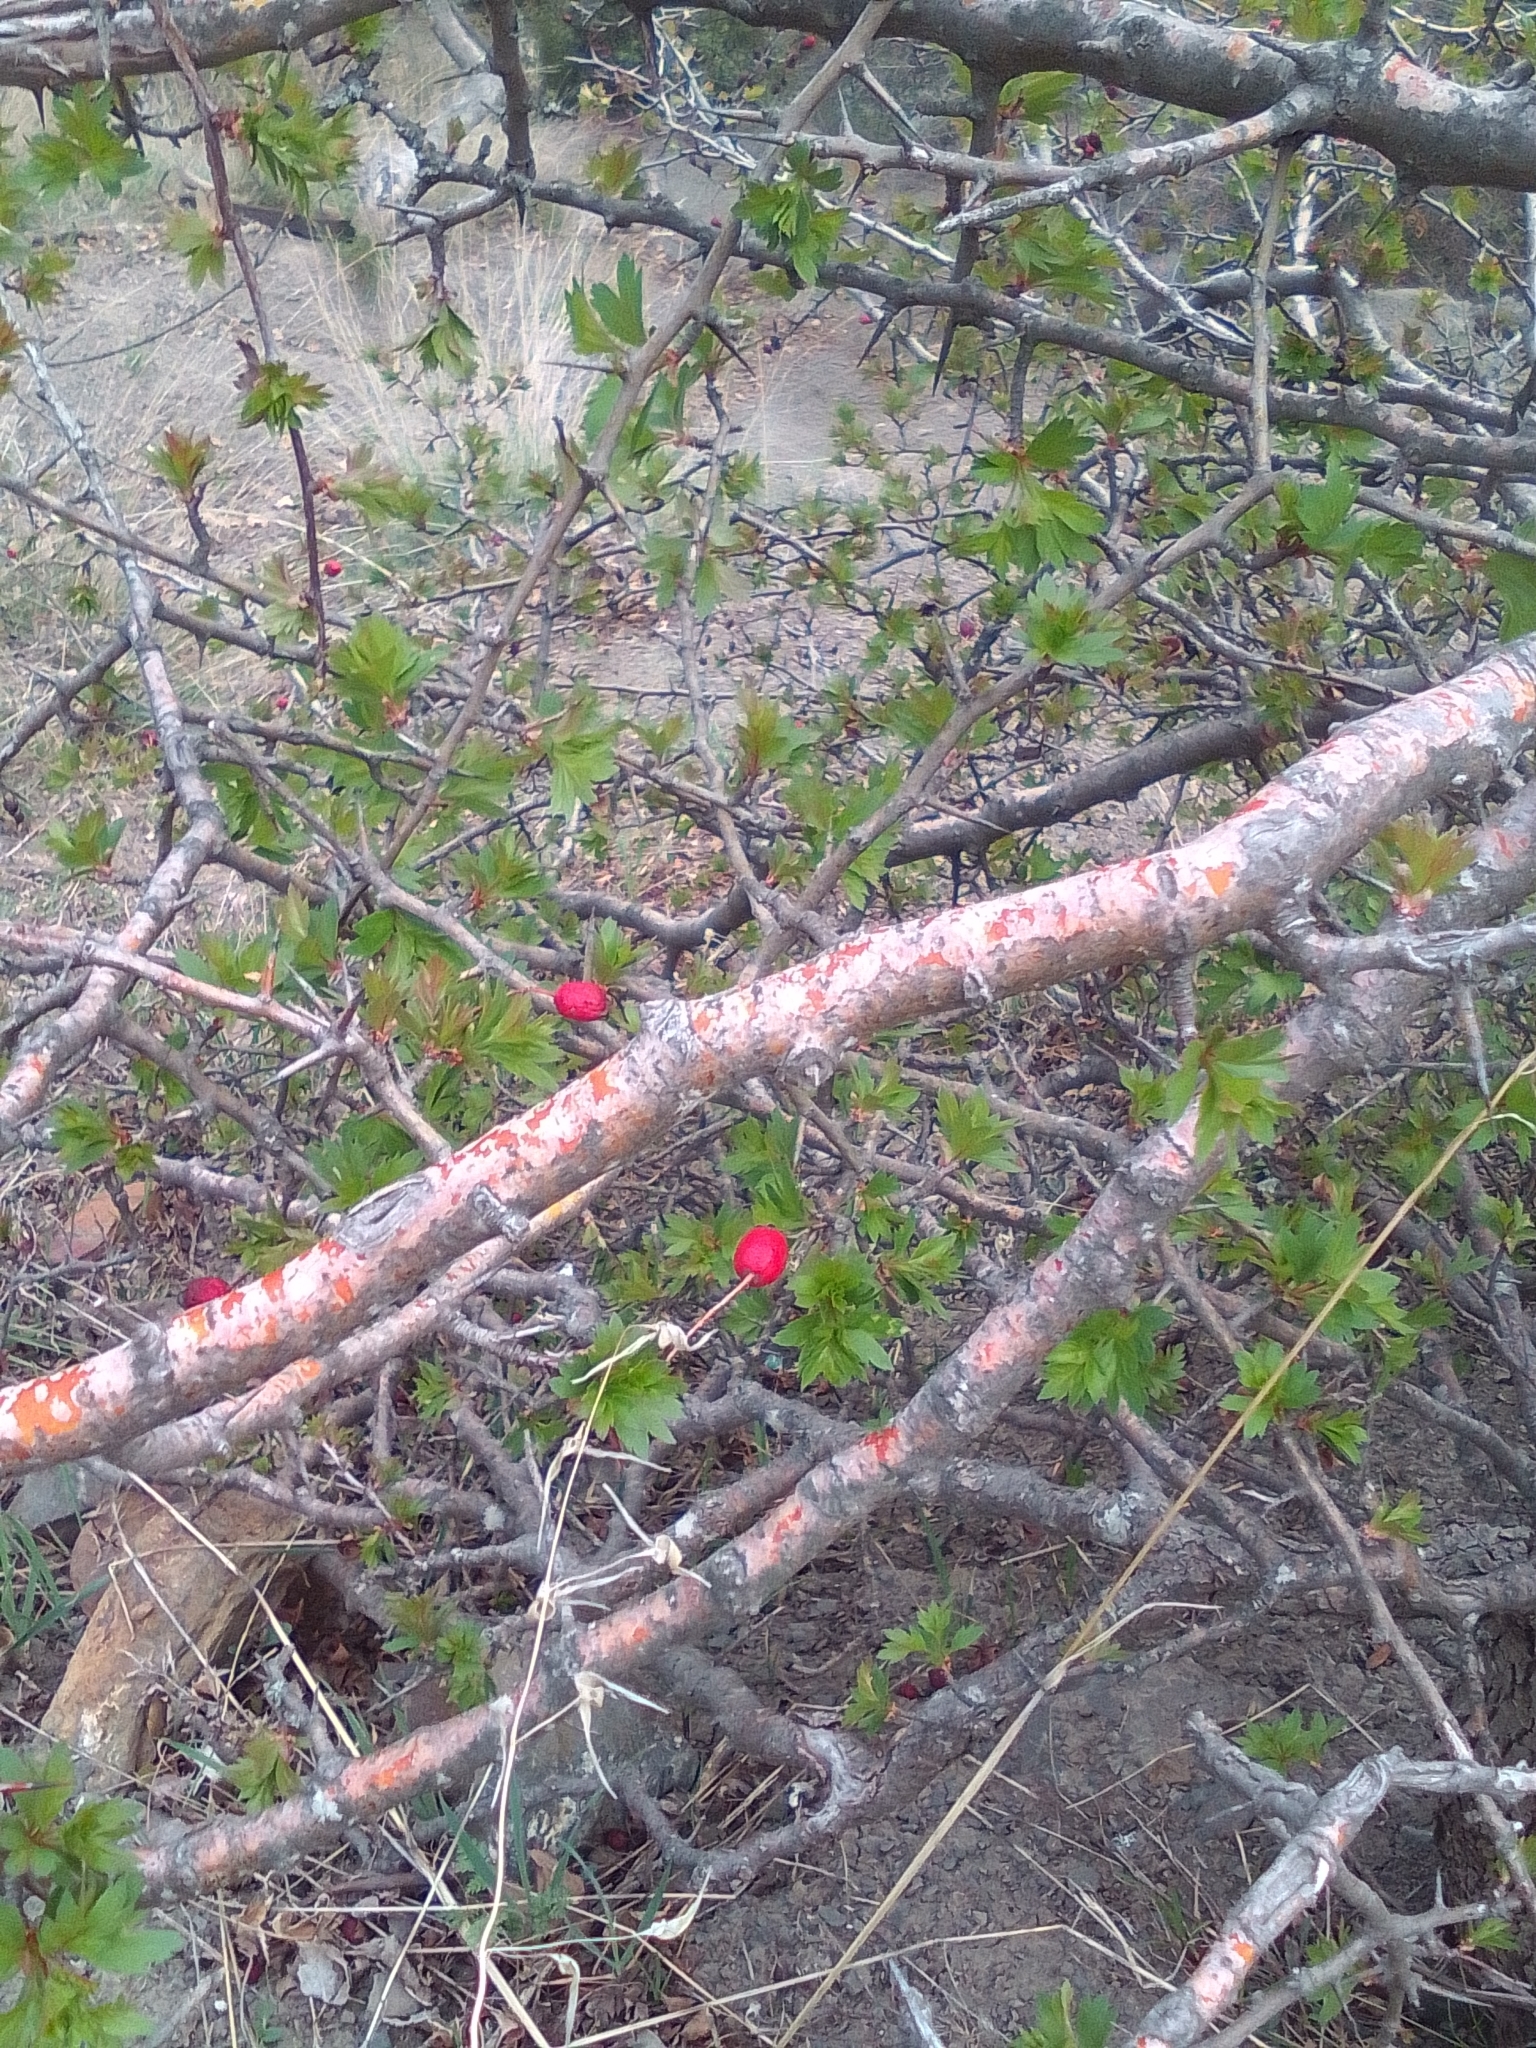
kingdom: Plantae
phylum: Tracheophyta
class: Magnoliopsida
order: Rosales
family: Rosaceae
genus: Crataegus
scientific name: Crataegus monogyna
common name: Hawthorn
